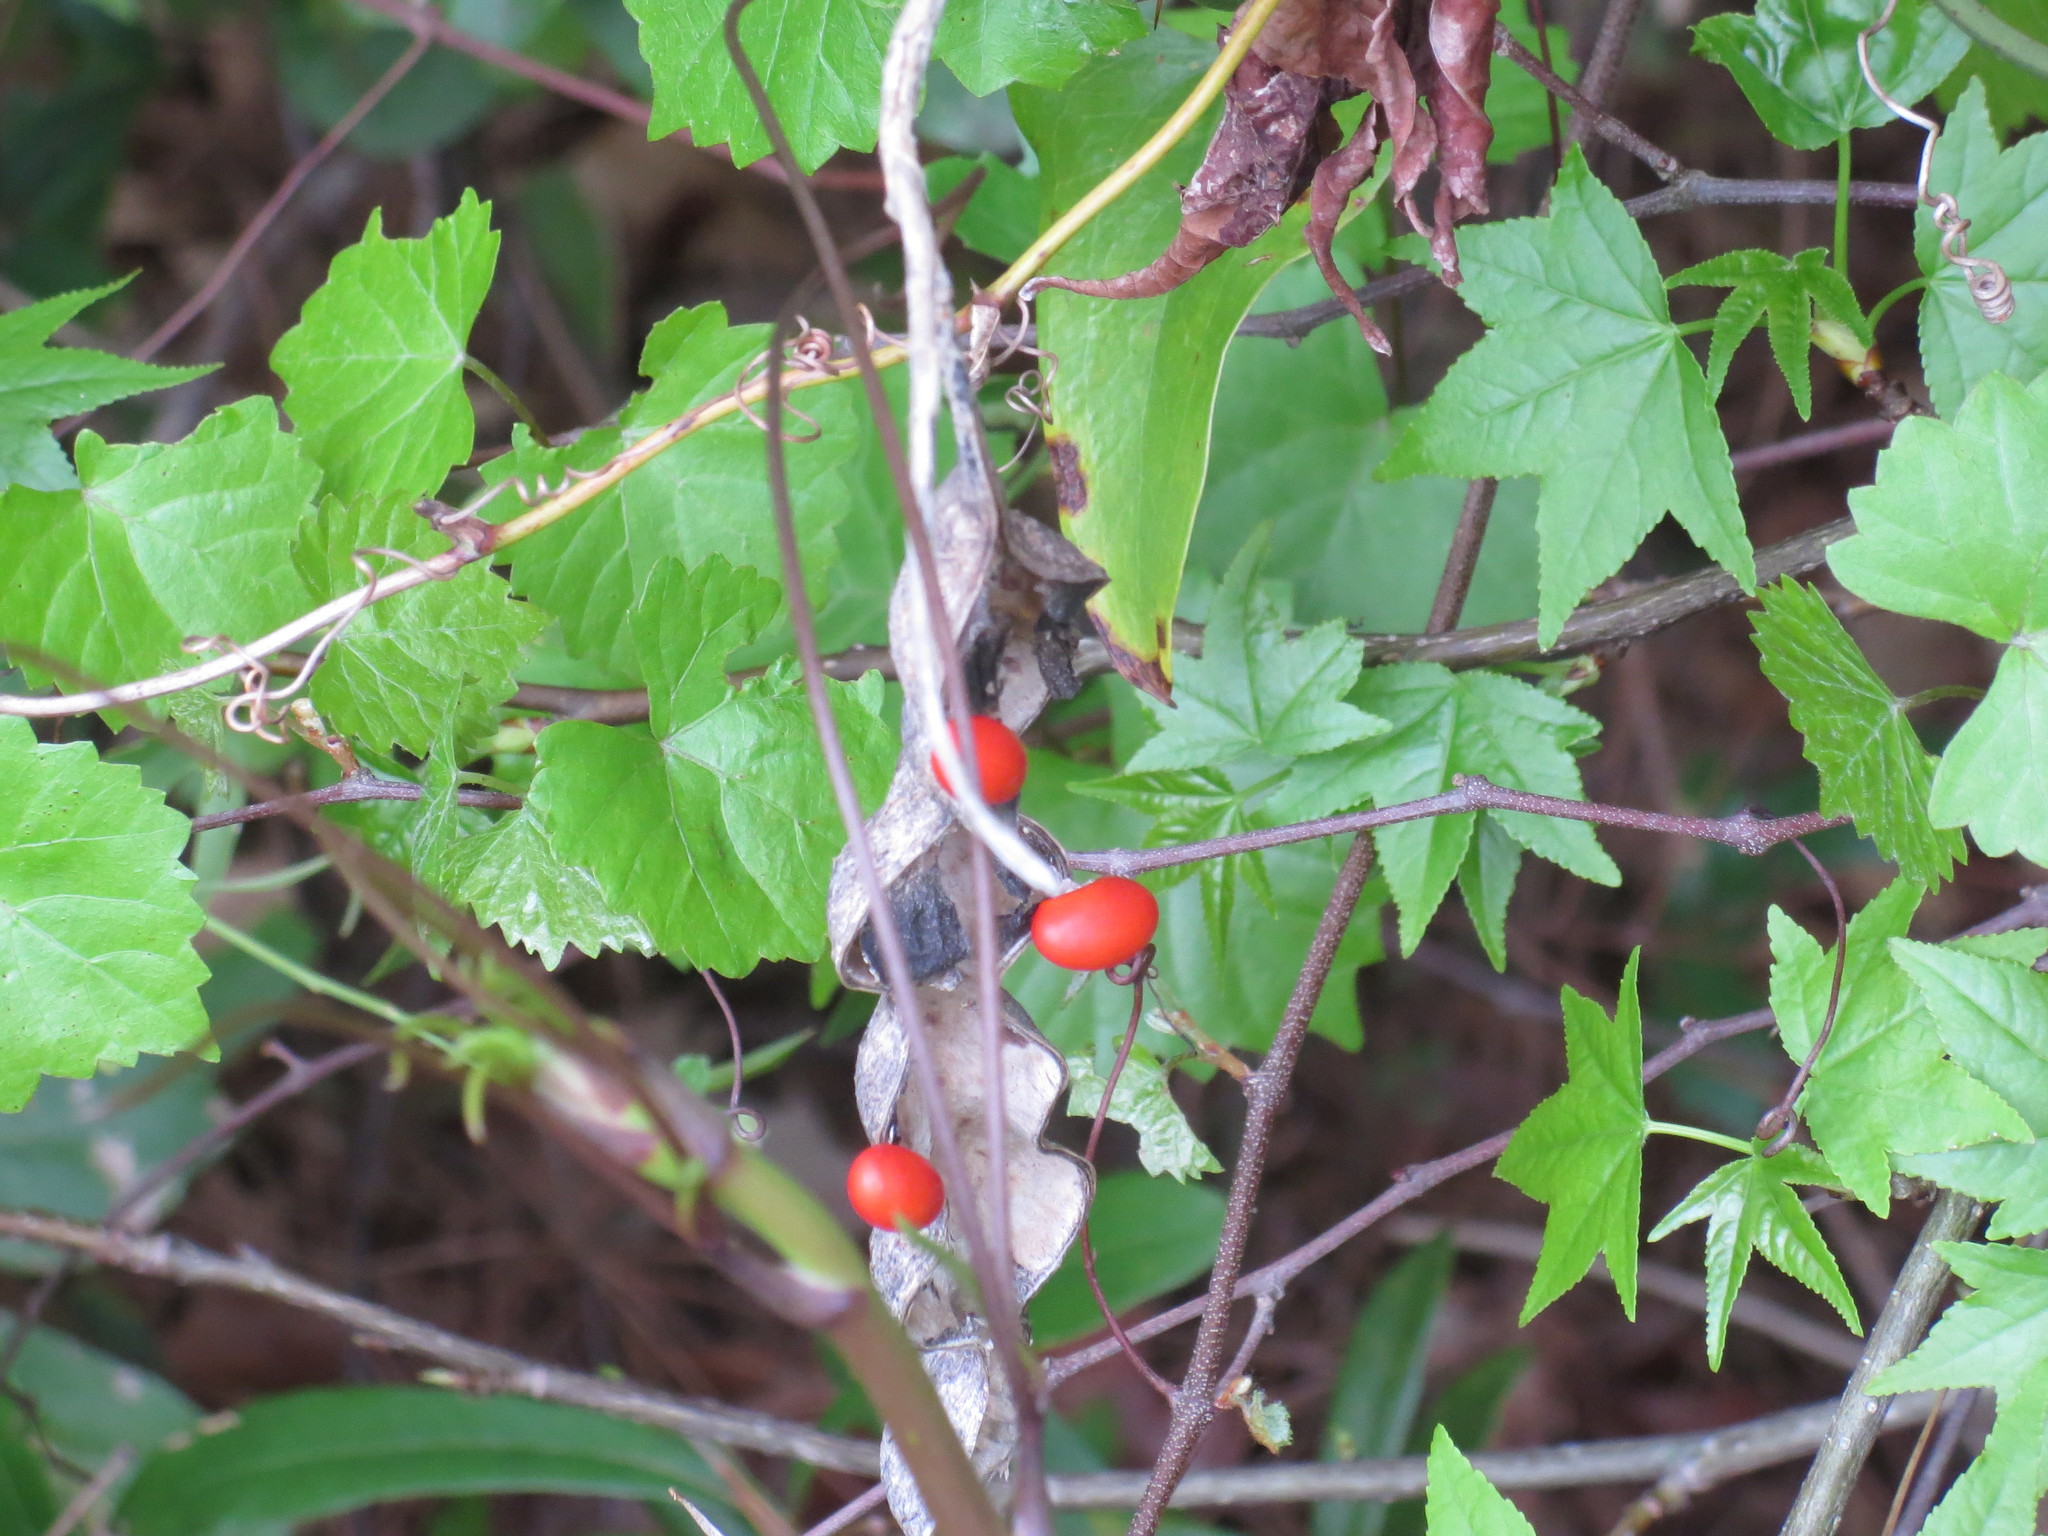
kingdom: Plantae
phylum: Tracheophyta
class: Magnoliopsida
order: Fabales
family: Fabaceae
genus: Erythrina
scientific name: Erythrina herbacea
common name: Coral-bean
